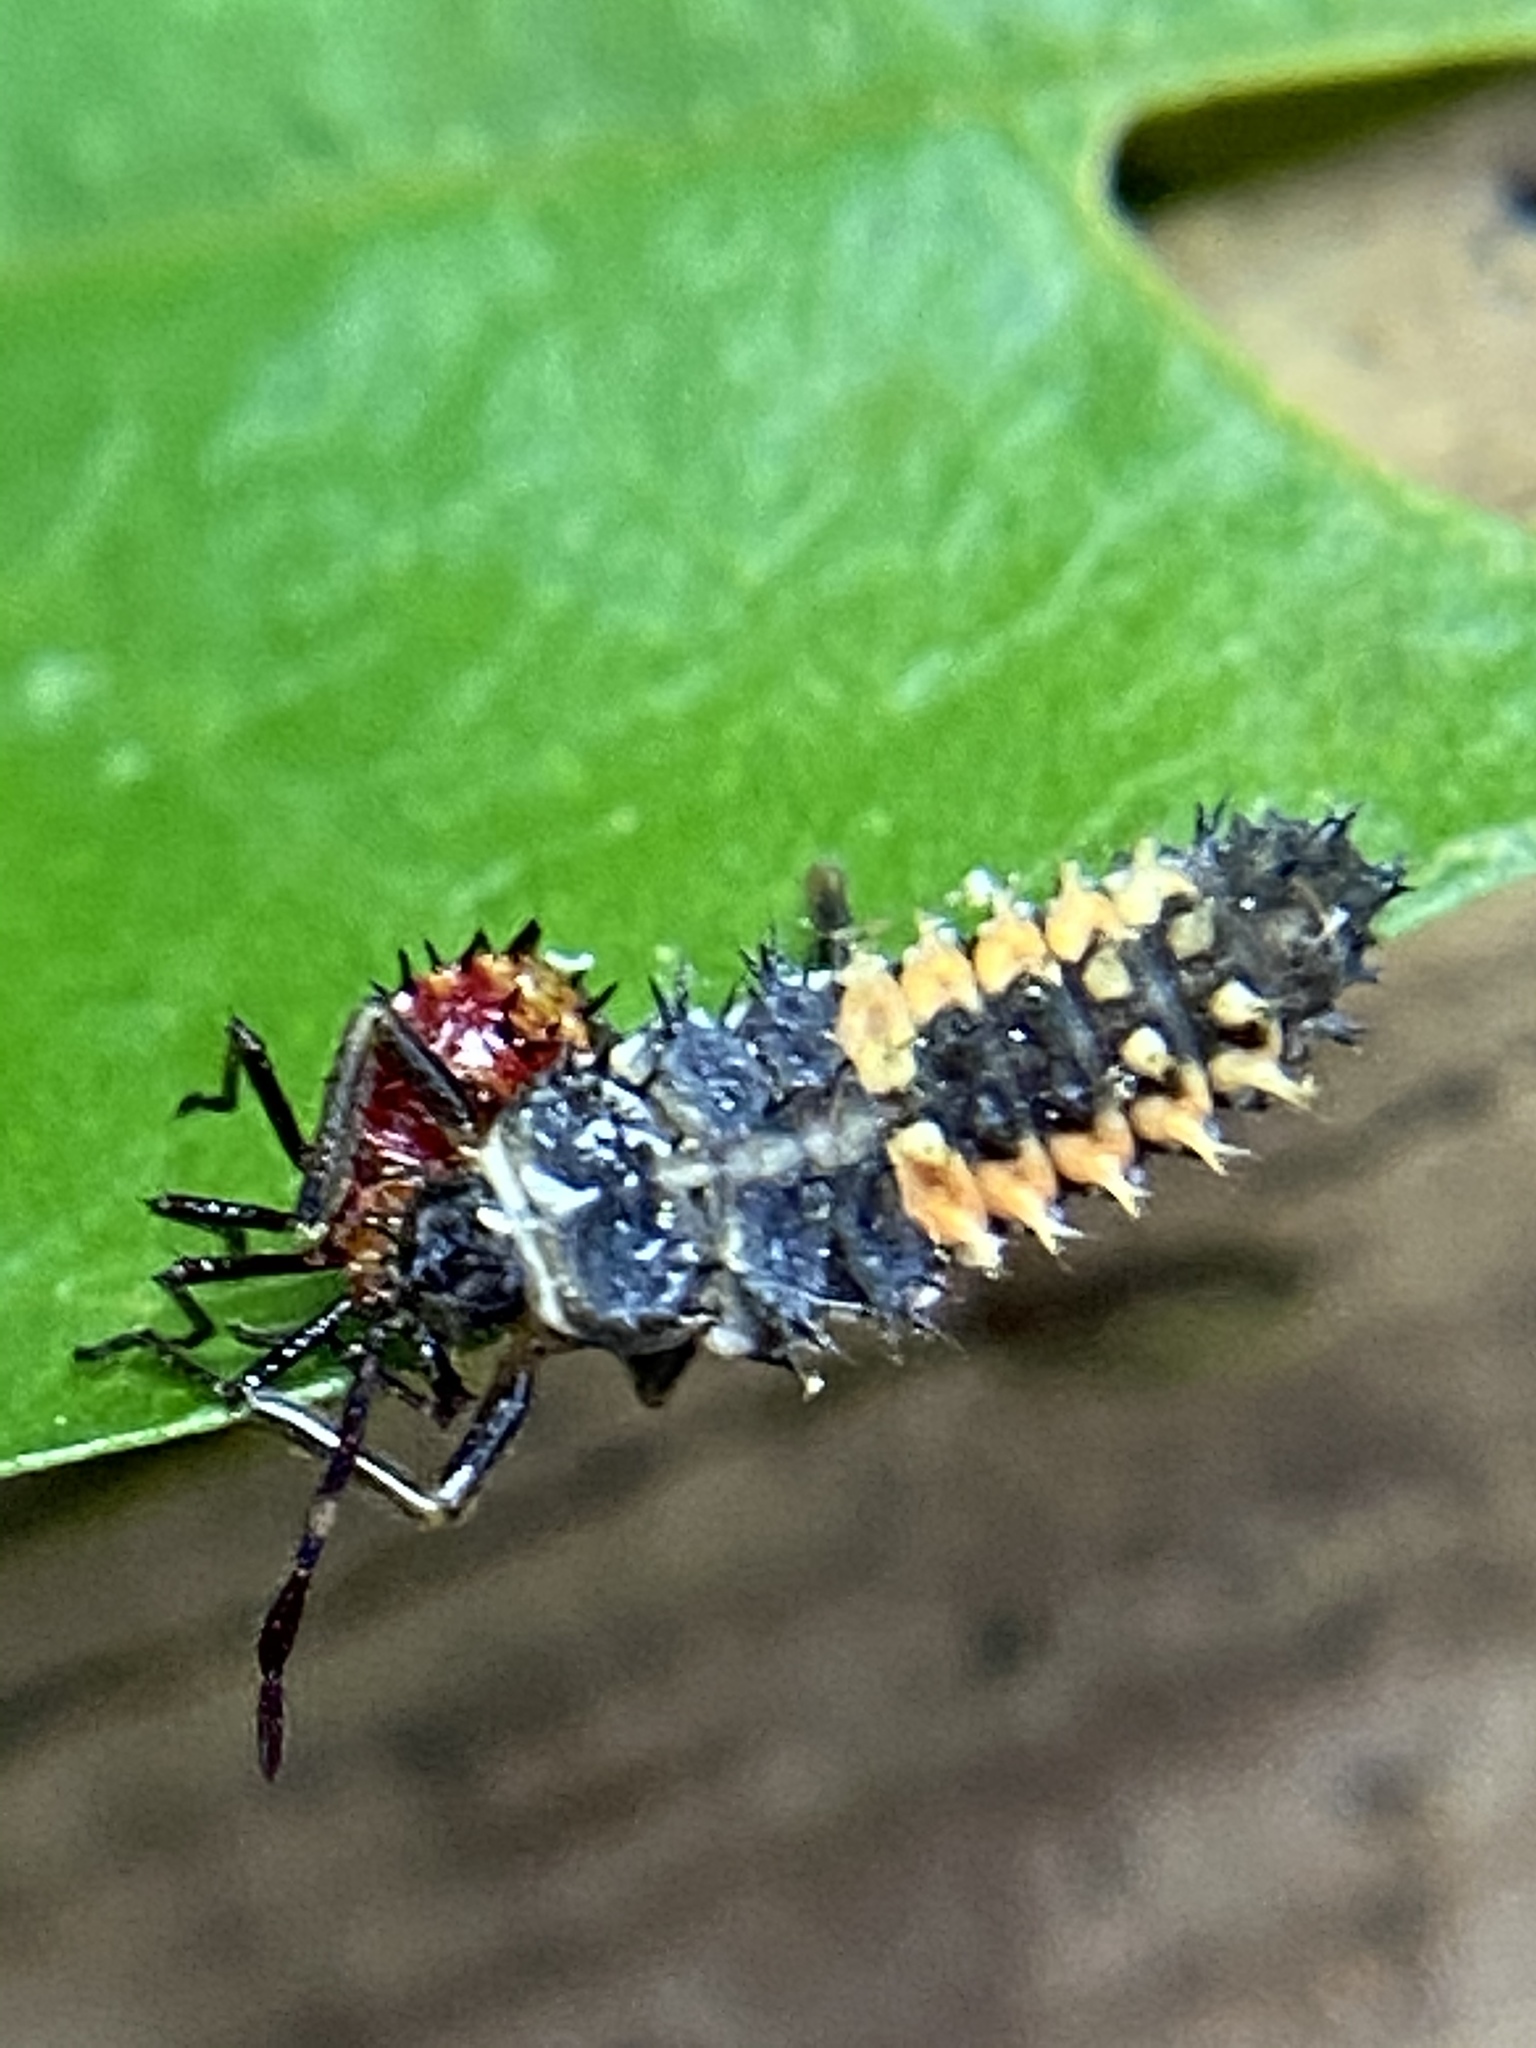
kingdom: Animalia
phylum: Arthropoda
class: Insecta
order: Coleoptera
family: Coccinellidae
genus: Harmonia
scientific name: Harmonia axyridis
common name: Harlequin ladybird
